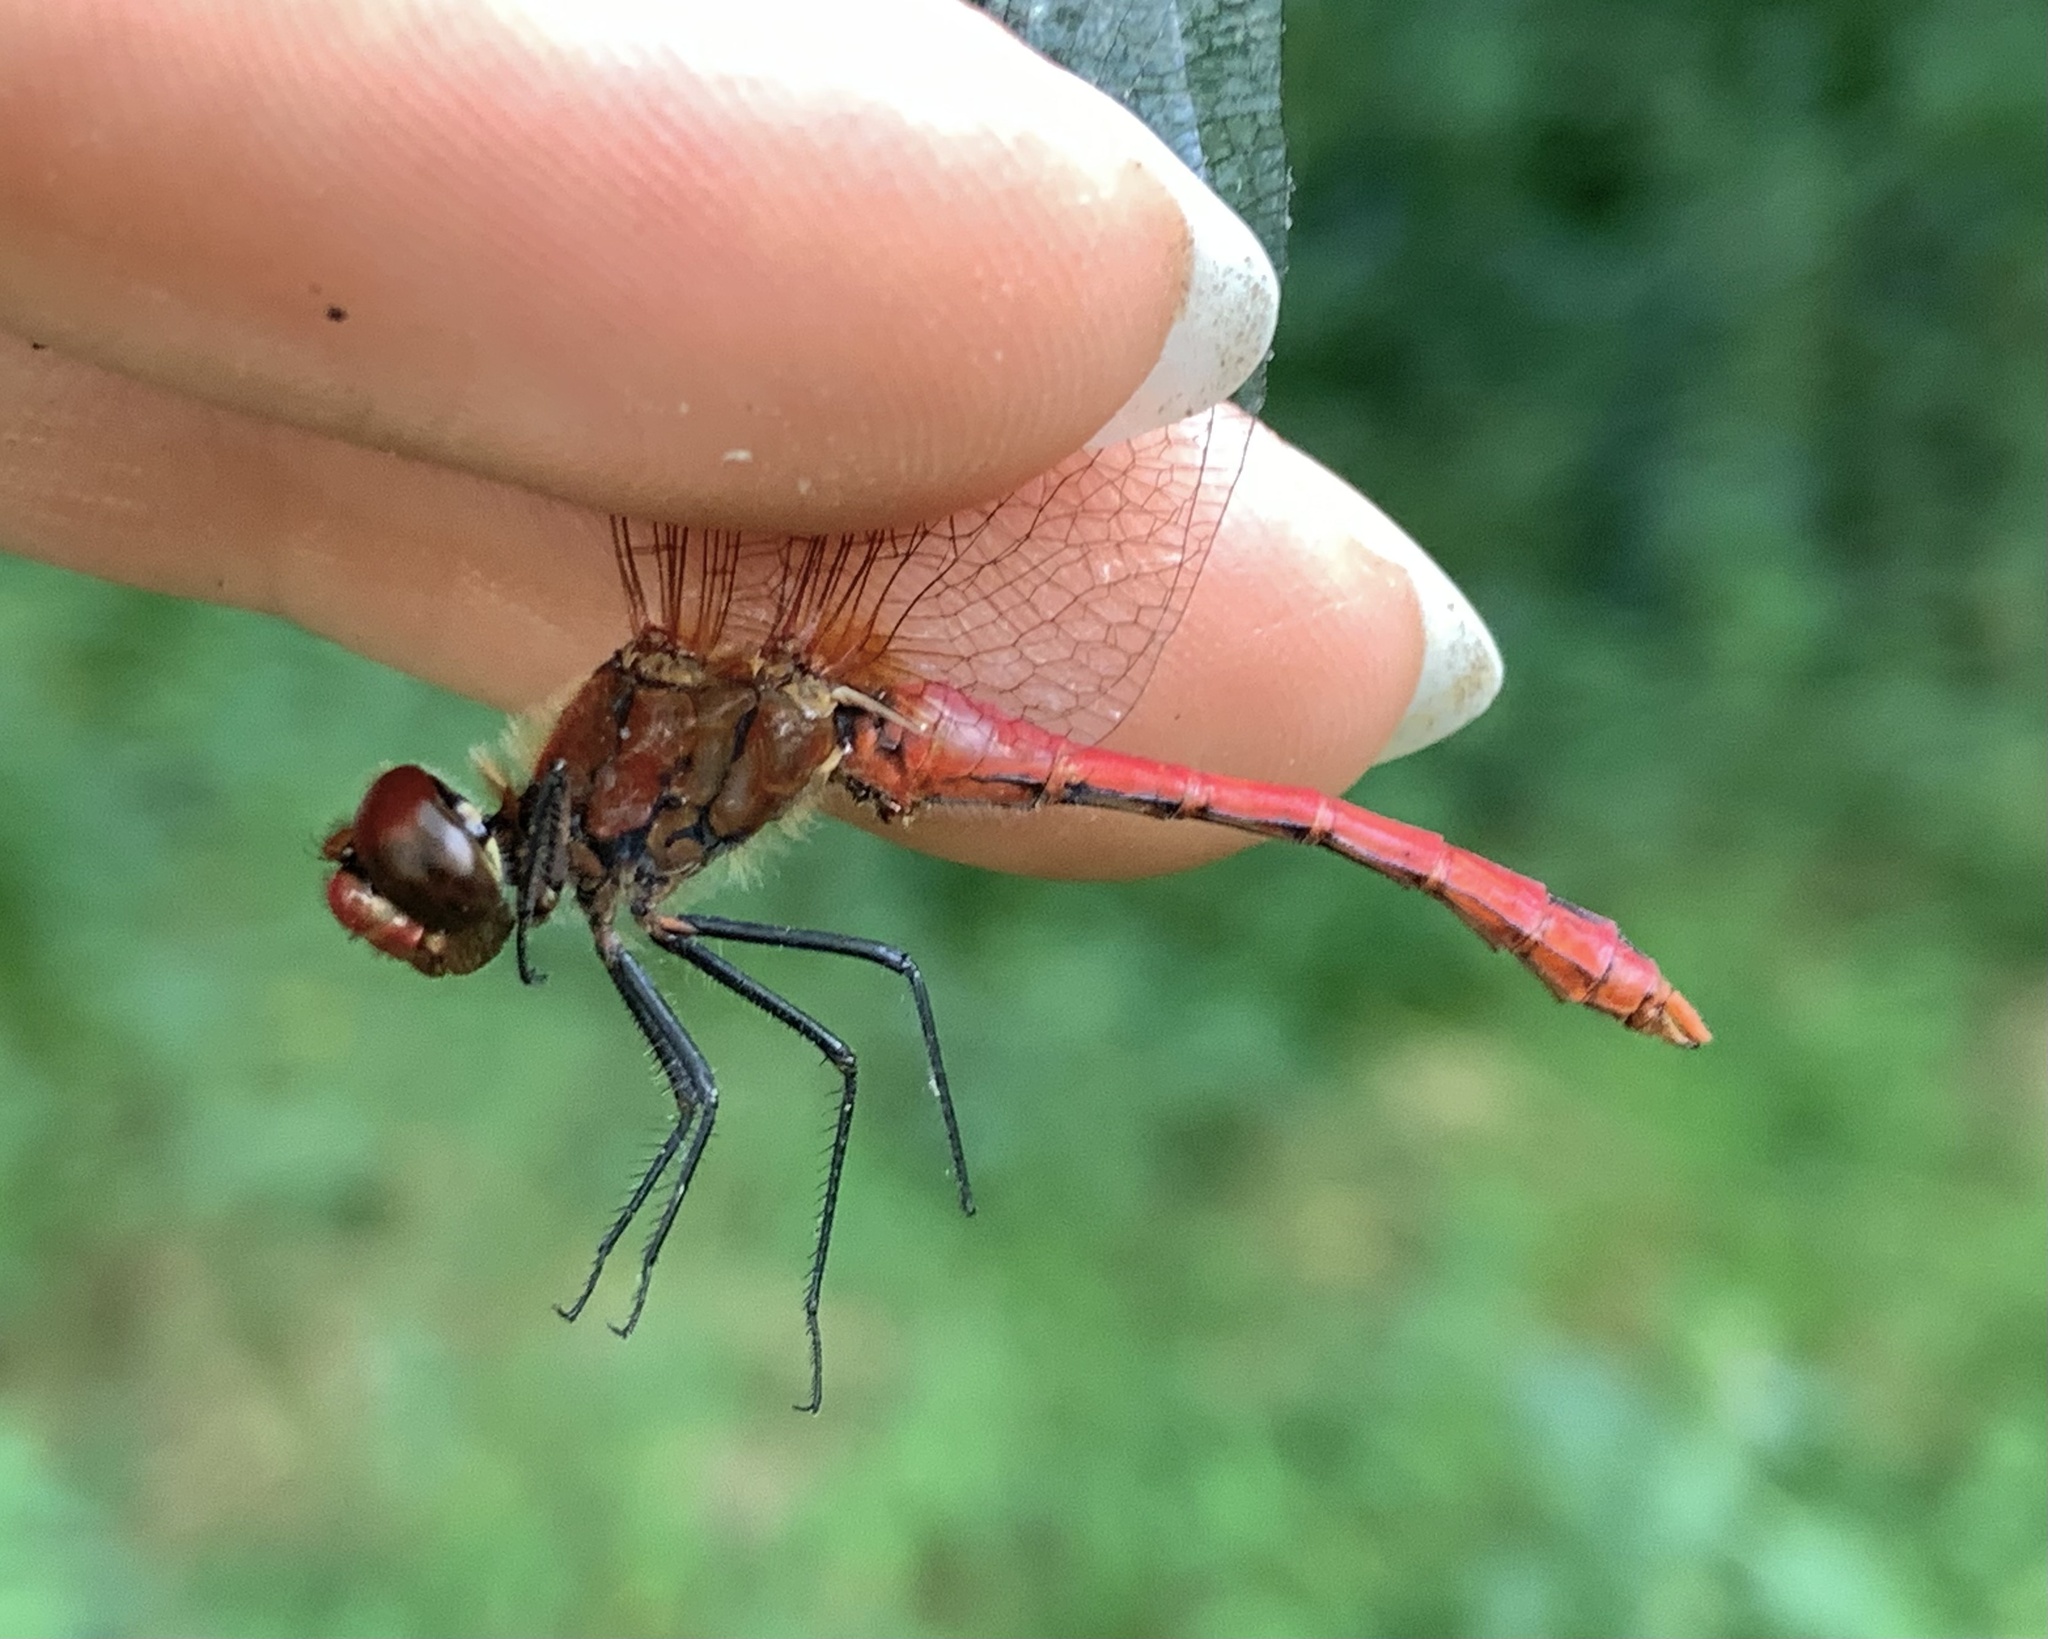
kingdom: Animalia
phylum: Arthropoda
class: Insecta
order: Odonata
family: Libellulidae
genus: Sympetrum
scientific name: Sympetrum sanguineum
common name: Ruddy darter
